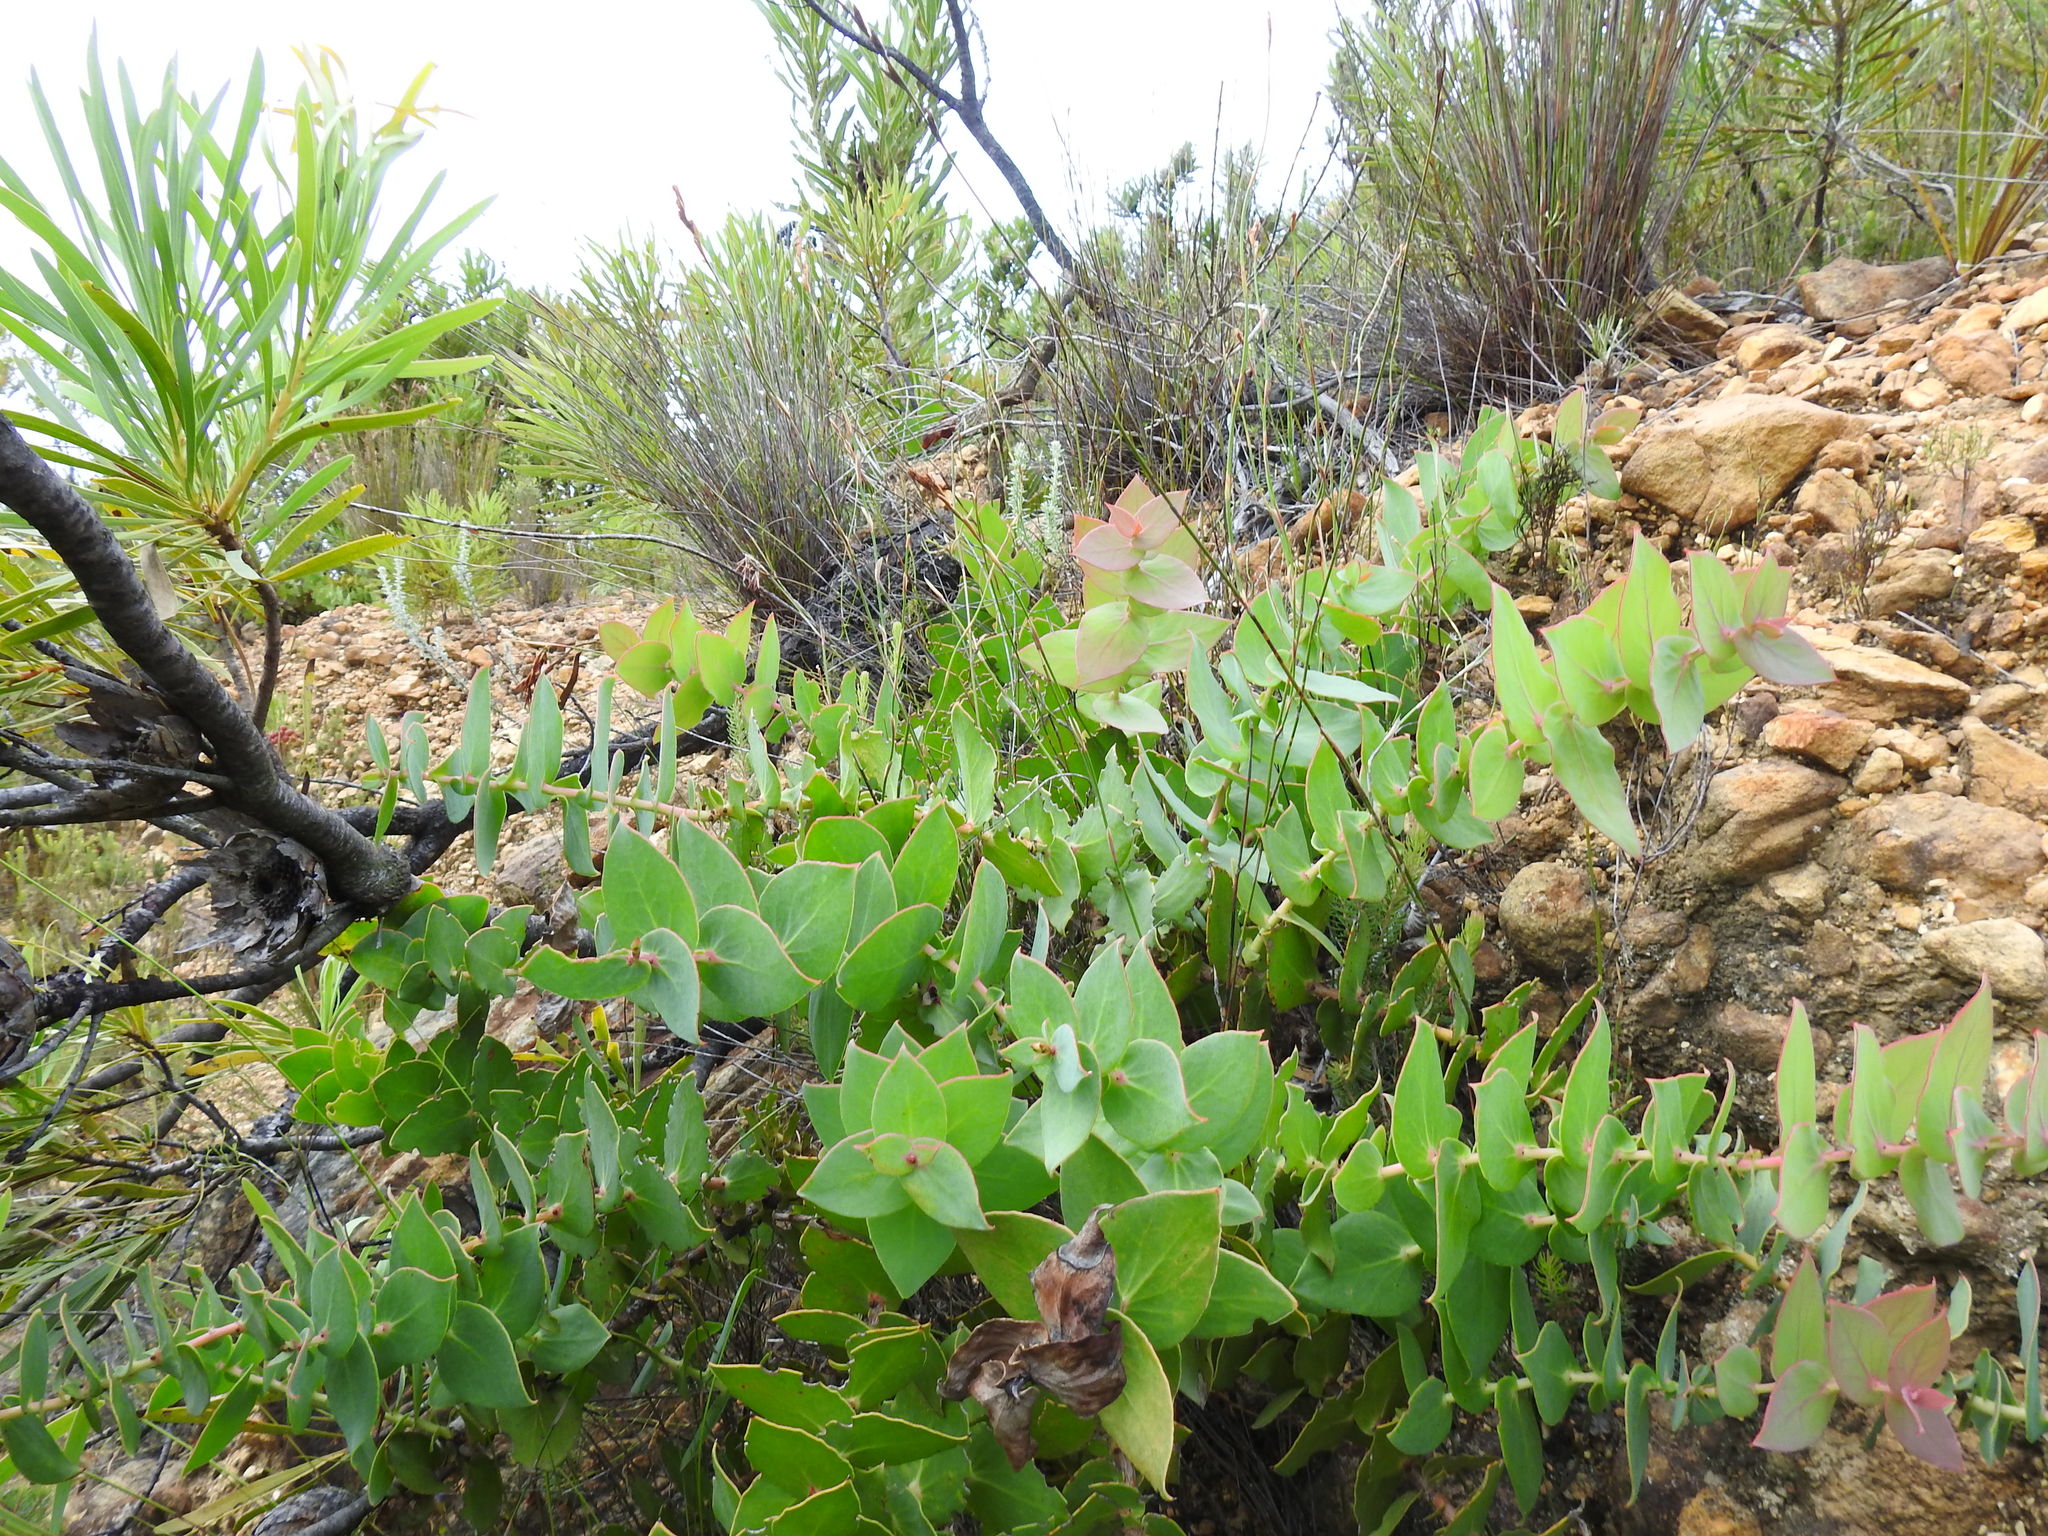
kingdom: Plantae
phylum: Tracheophyta
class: Magnoliopsida
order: Proteales
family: Proteaceae
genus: Protea
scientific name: Protea amplexicaulis
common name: Clasping-leaf sugarbush
